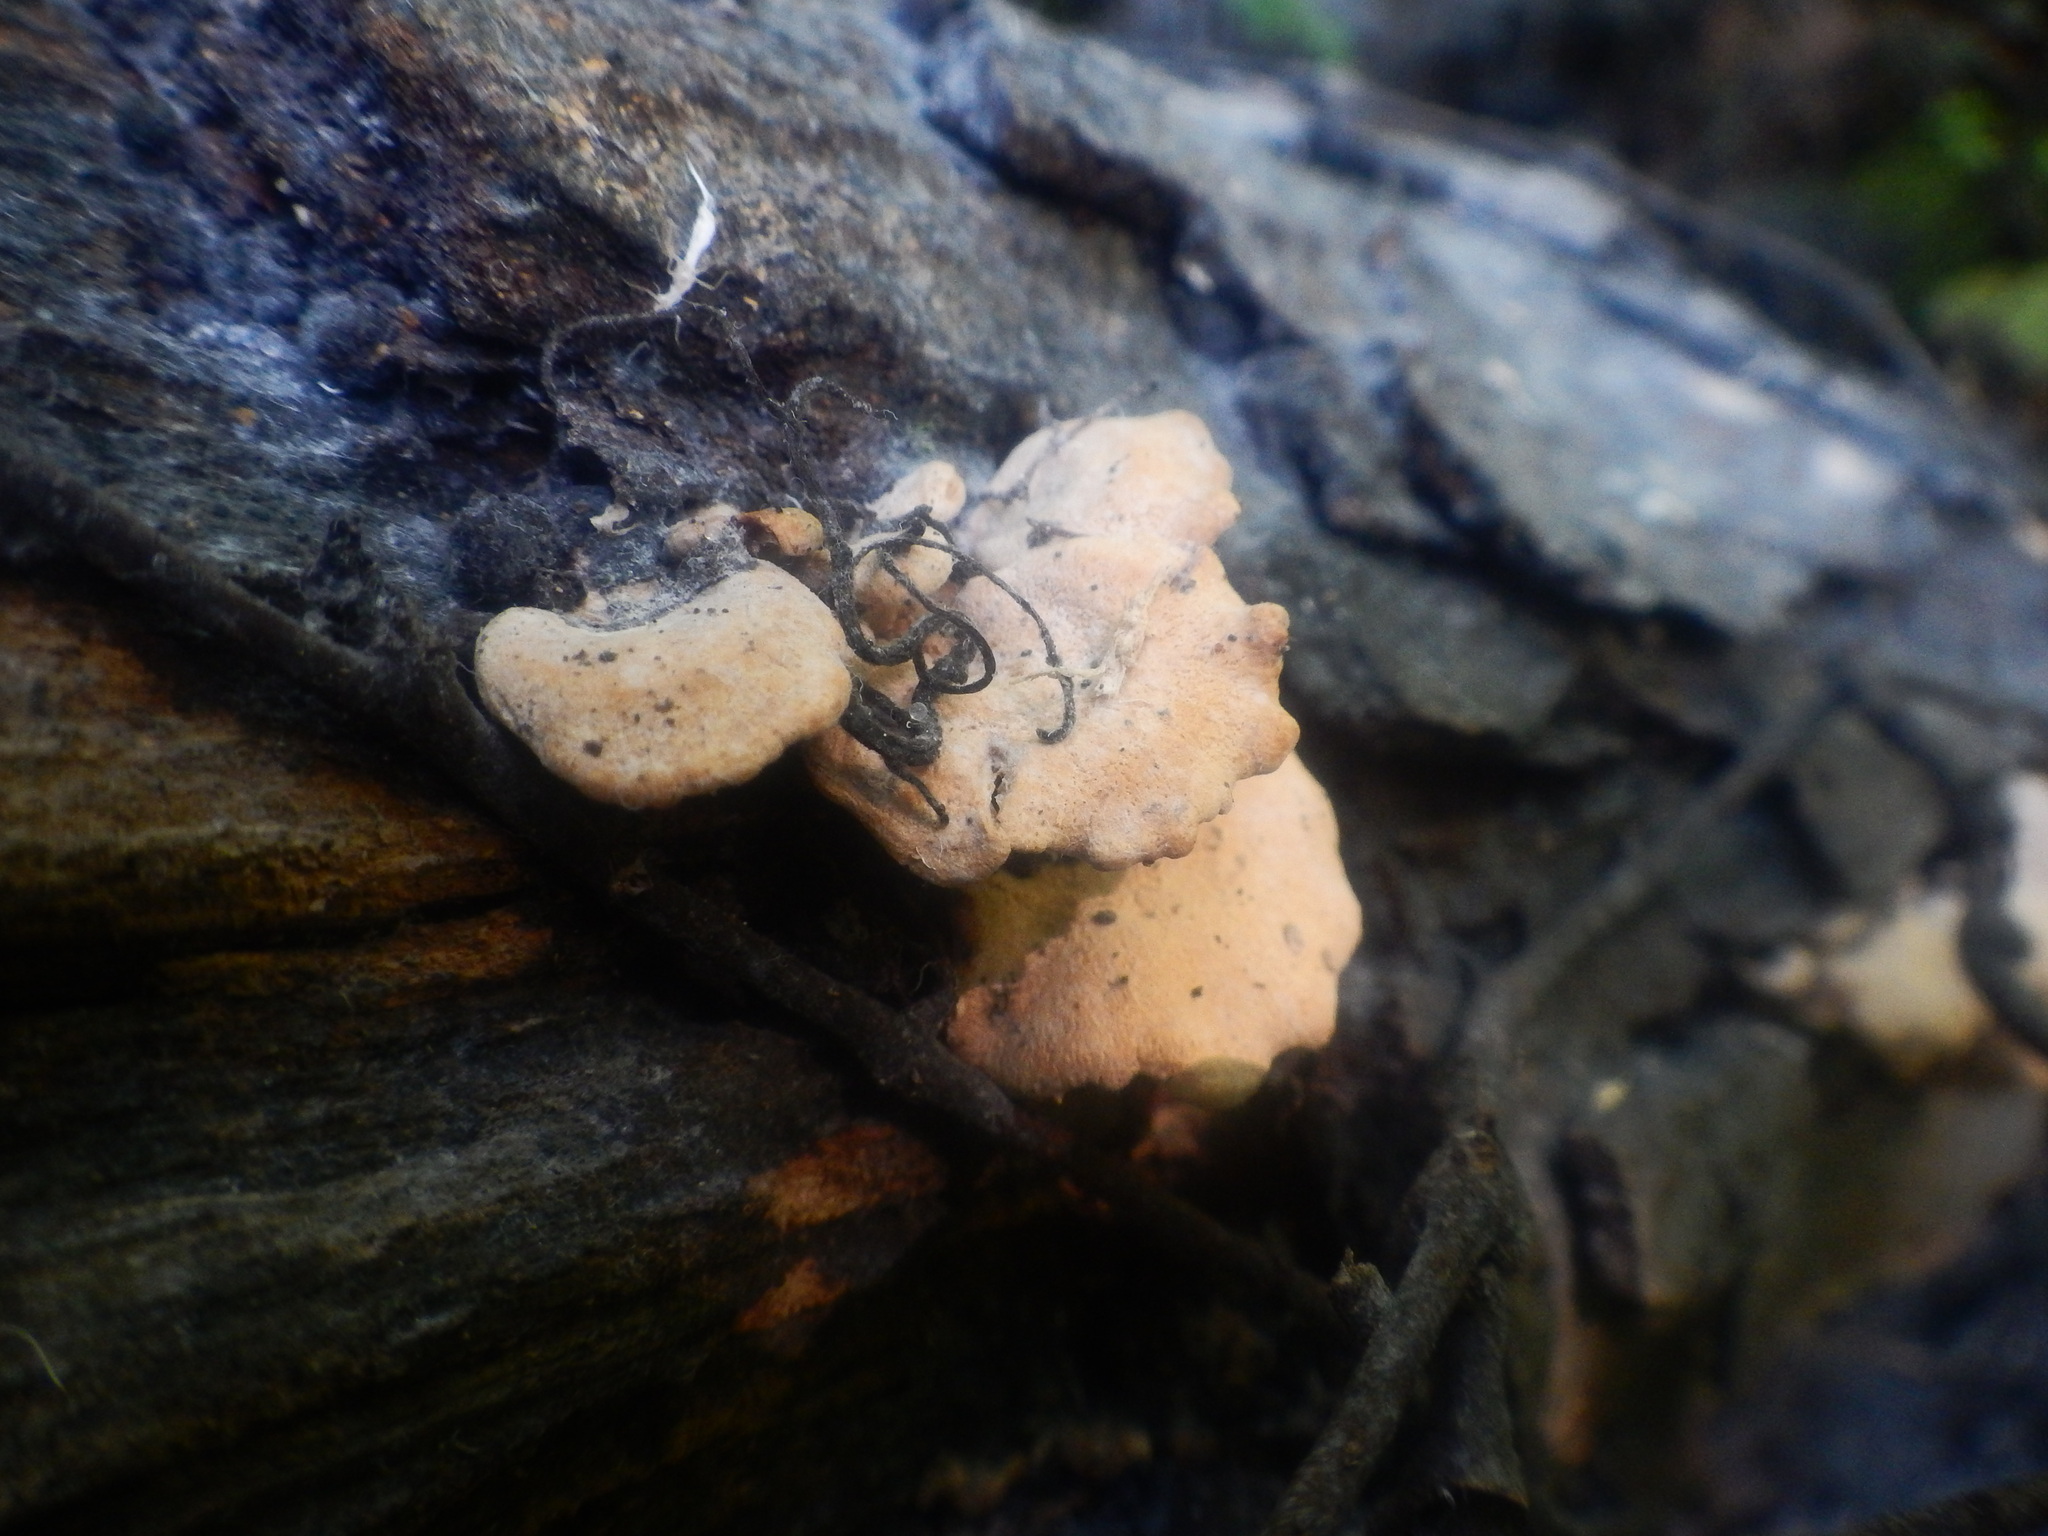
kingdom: Fungi
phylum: Basidiomycota
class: Agaricomycetes
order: Agaricales
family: Mycenaceae
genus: Panellus
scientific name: Panellus stipticus
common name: Bitter oysterling
